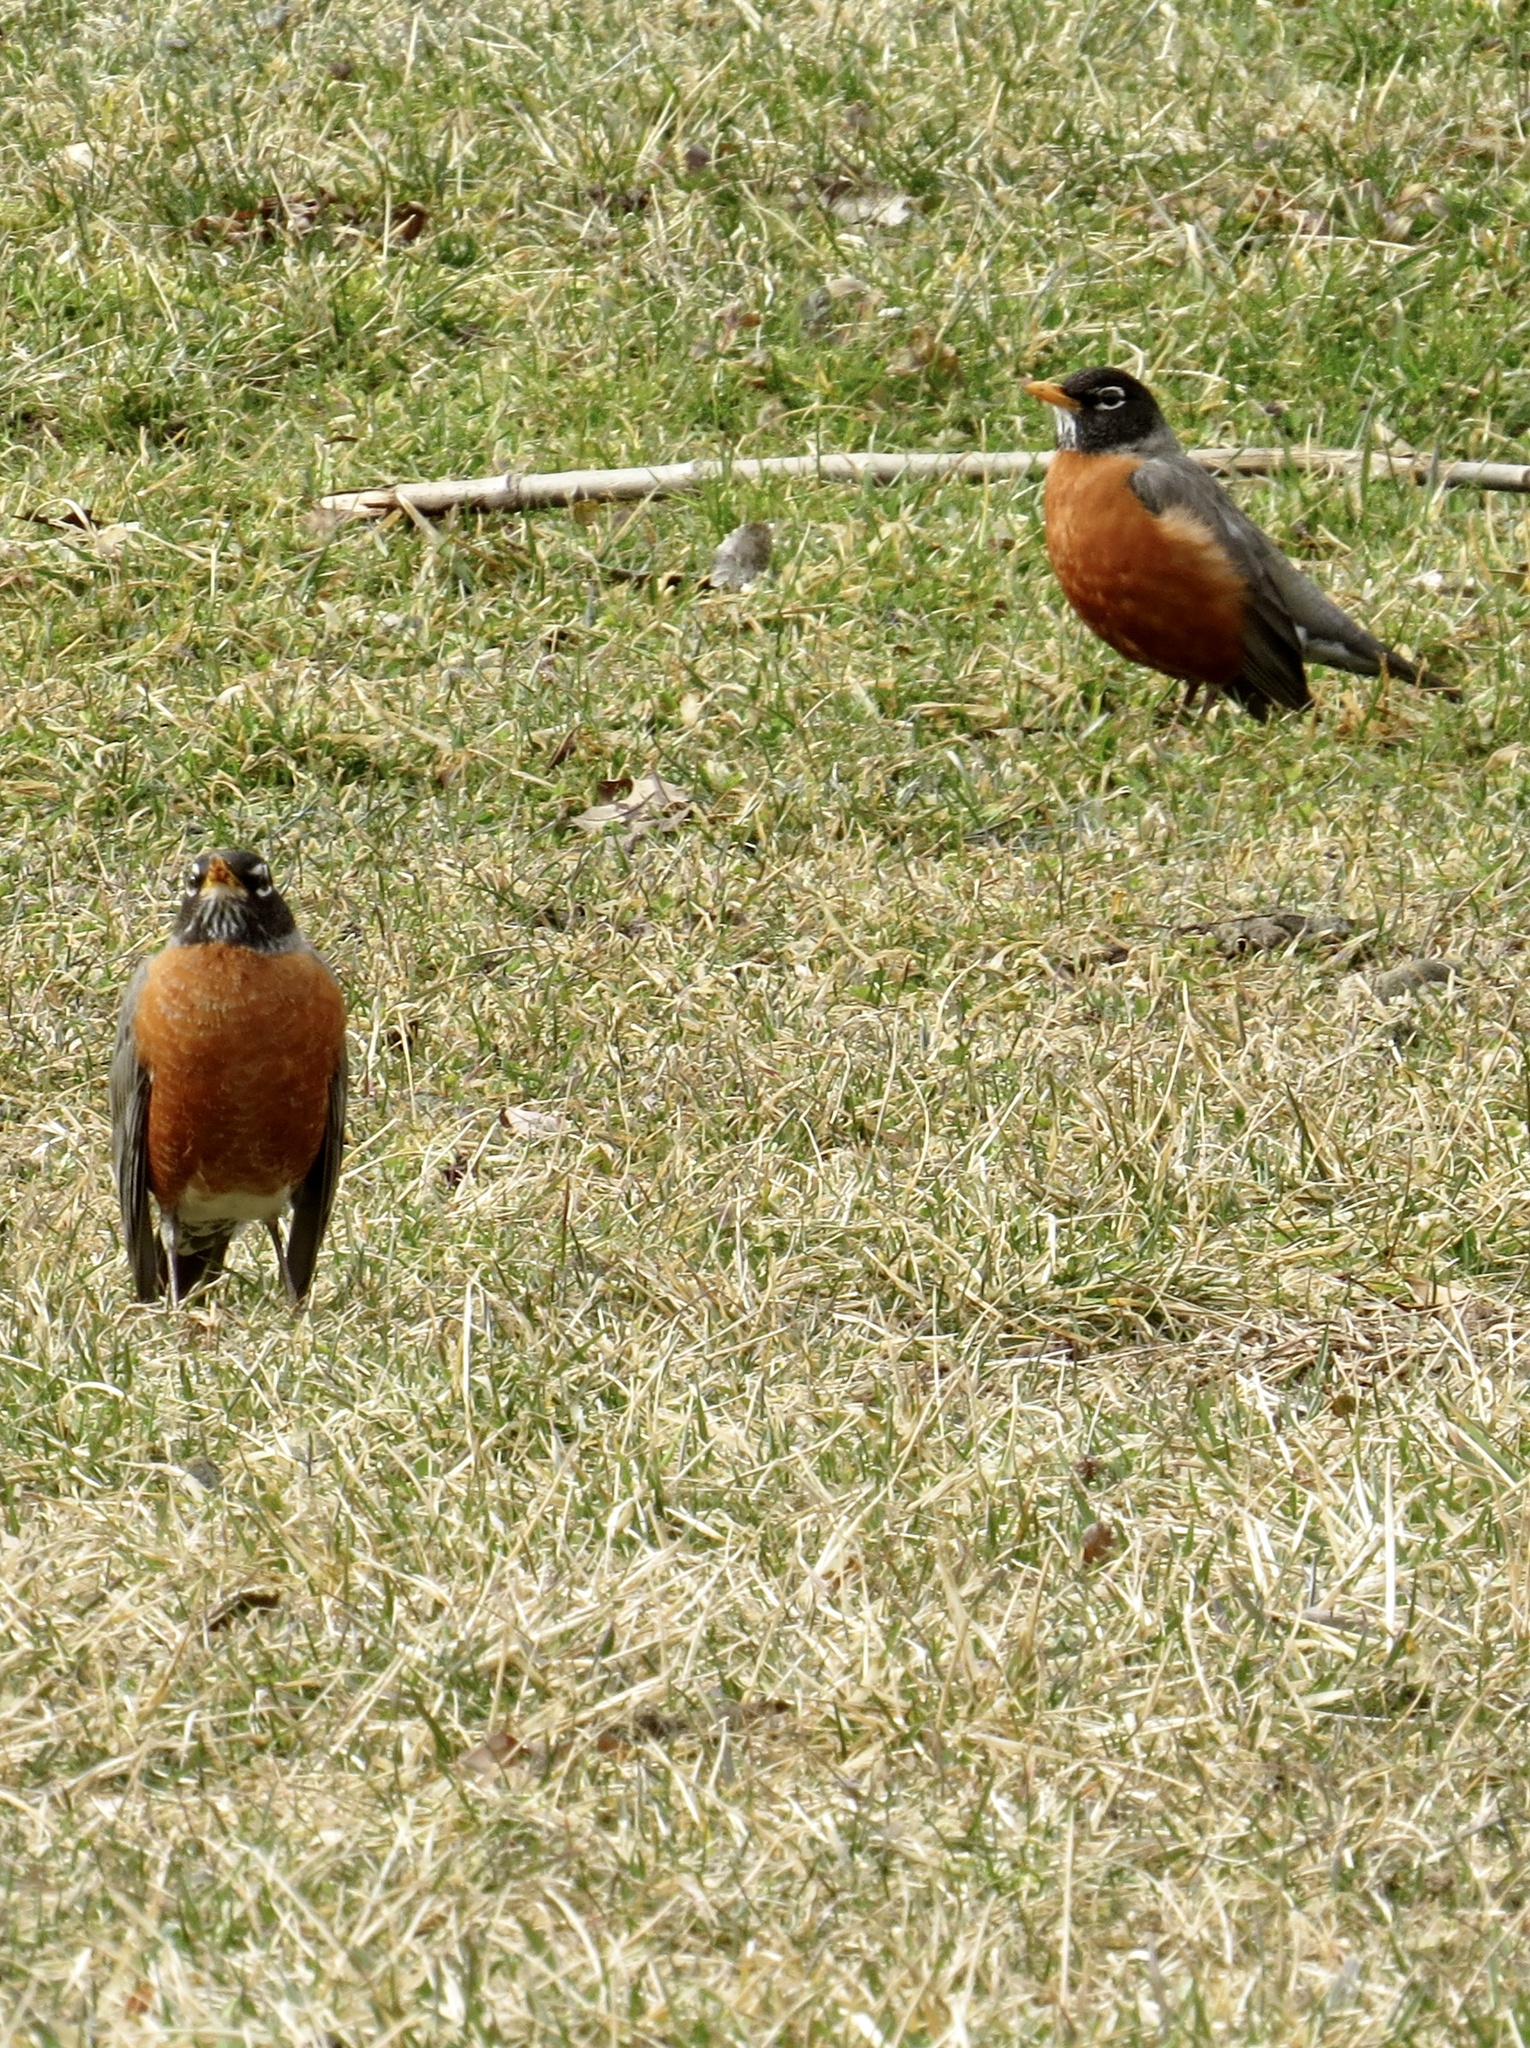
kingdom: Animalia
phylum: Chordata
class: Aves
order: Passeriformes
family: Turdidae
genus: Turdus
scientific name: Turdus migratorius
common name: American robin
